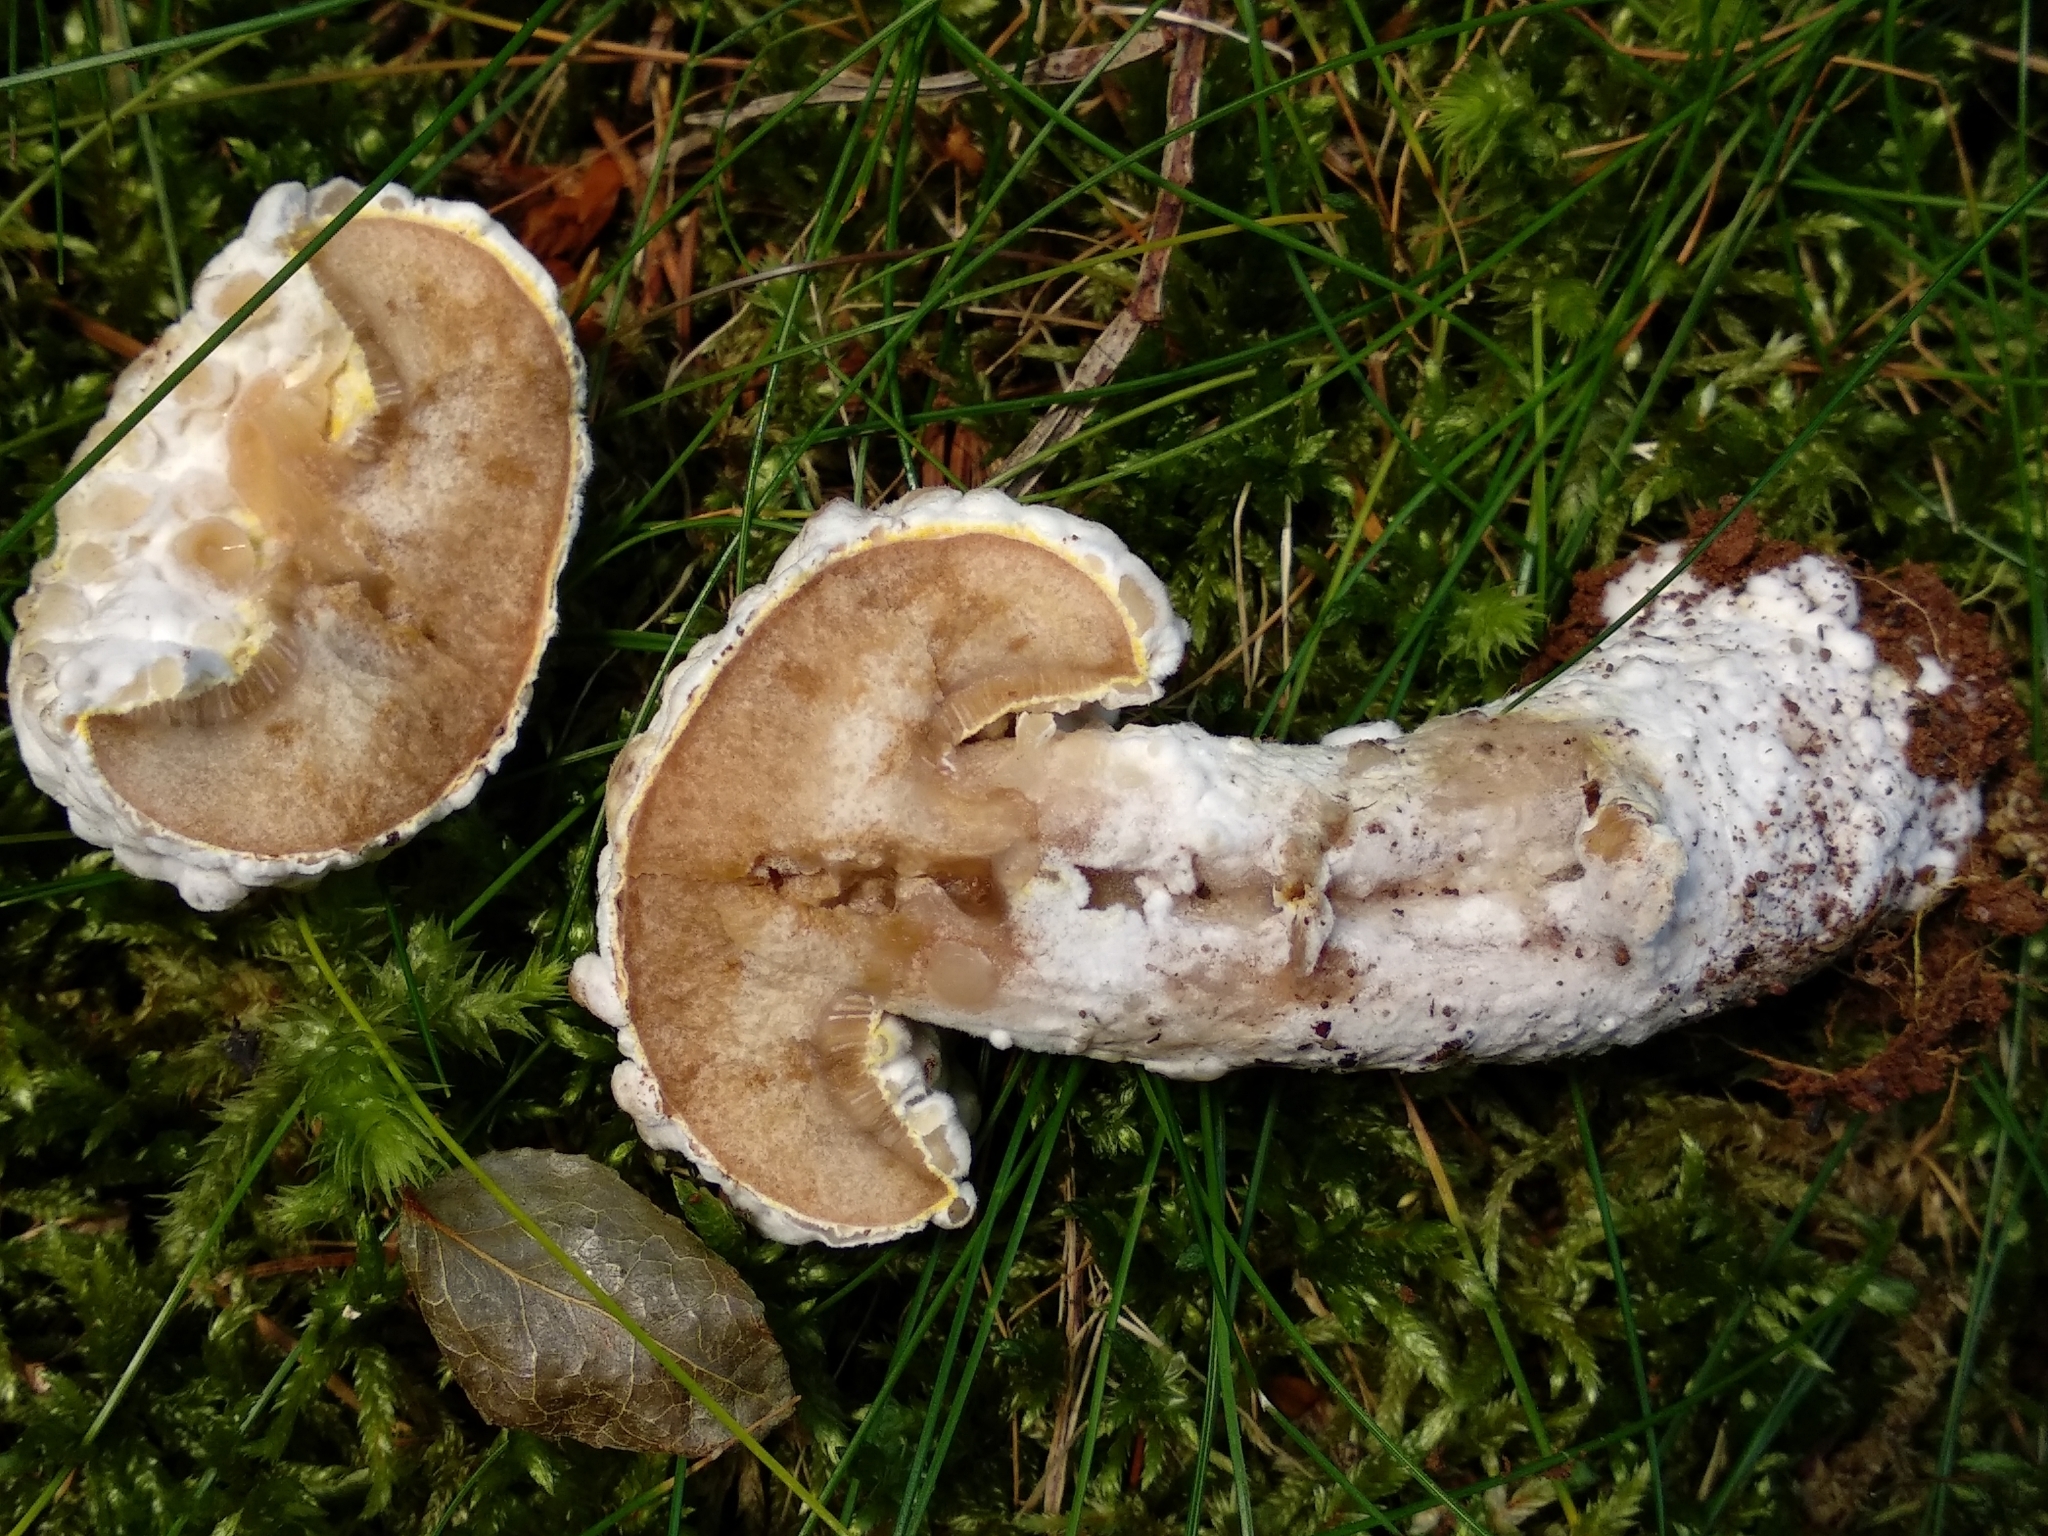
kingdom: Fungi
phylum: Ascomycota
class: Sordariomycetes
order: Hypocreales
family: Hypocreaceae
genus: Hypomyces
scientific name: Hypomyces chrysospermus
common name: Bolete mould
